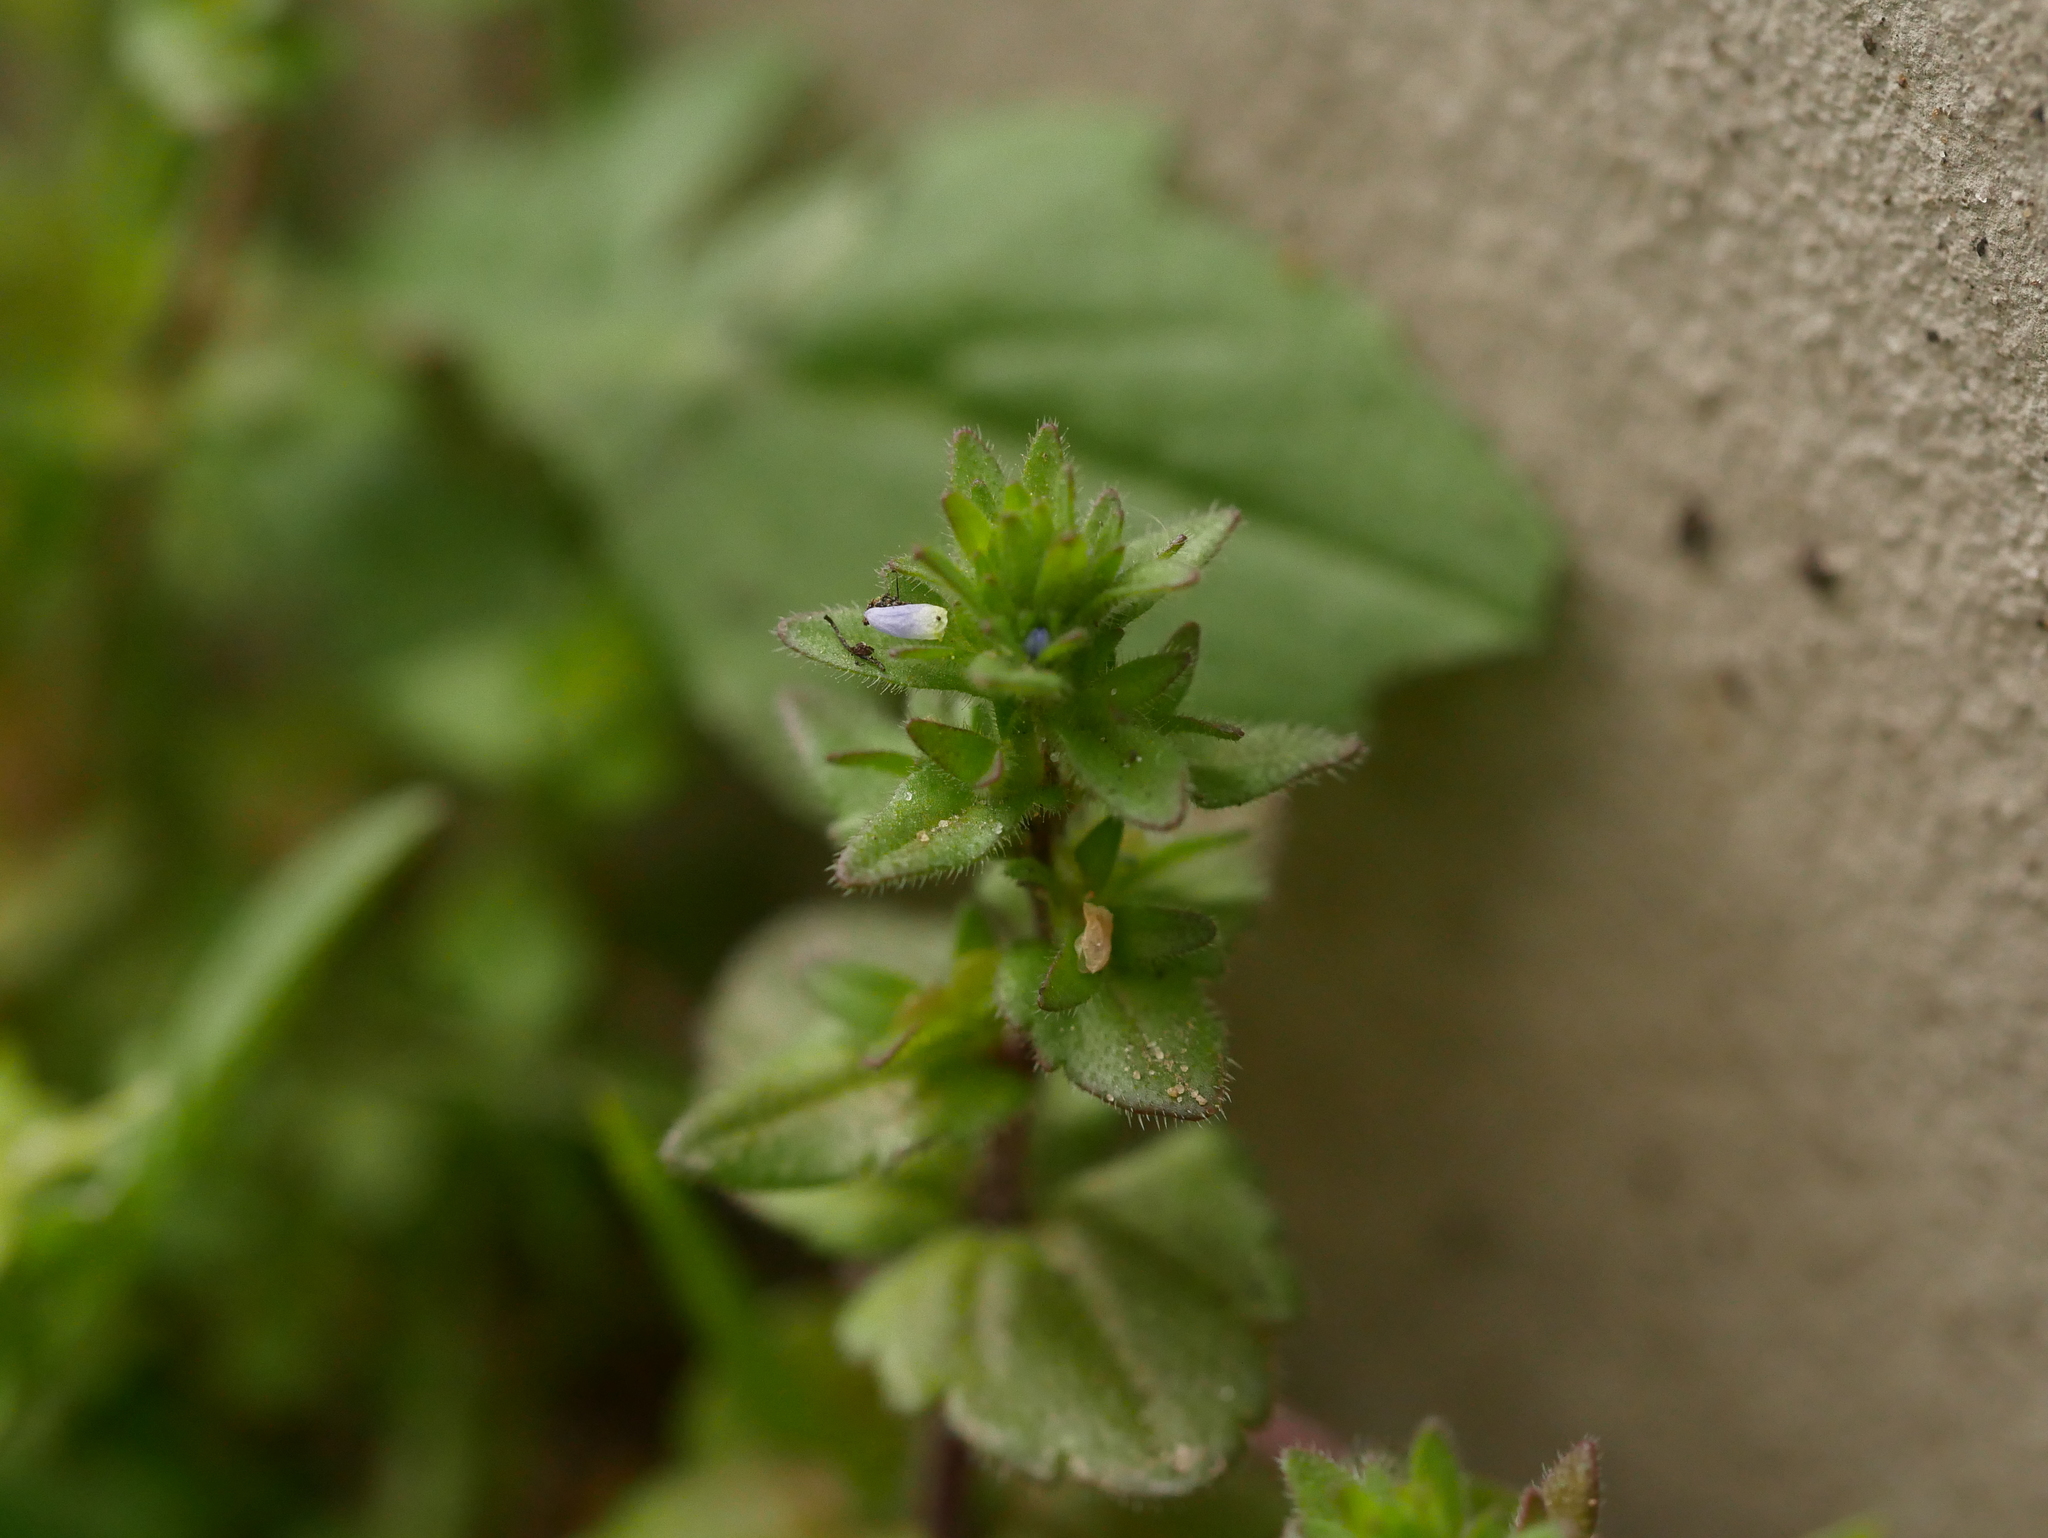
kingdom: Plantae
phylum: Tracheophyta
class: Magnoliopsida
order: Lamiales
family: Plantaginaceae
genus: Veronica
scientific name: Veronica arvensis
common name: Corn speedwell
